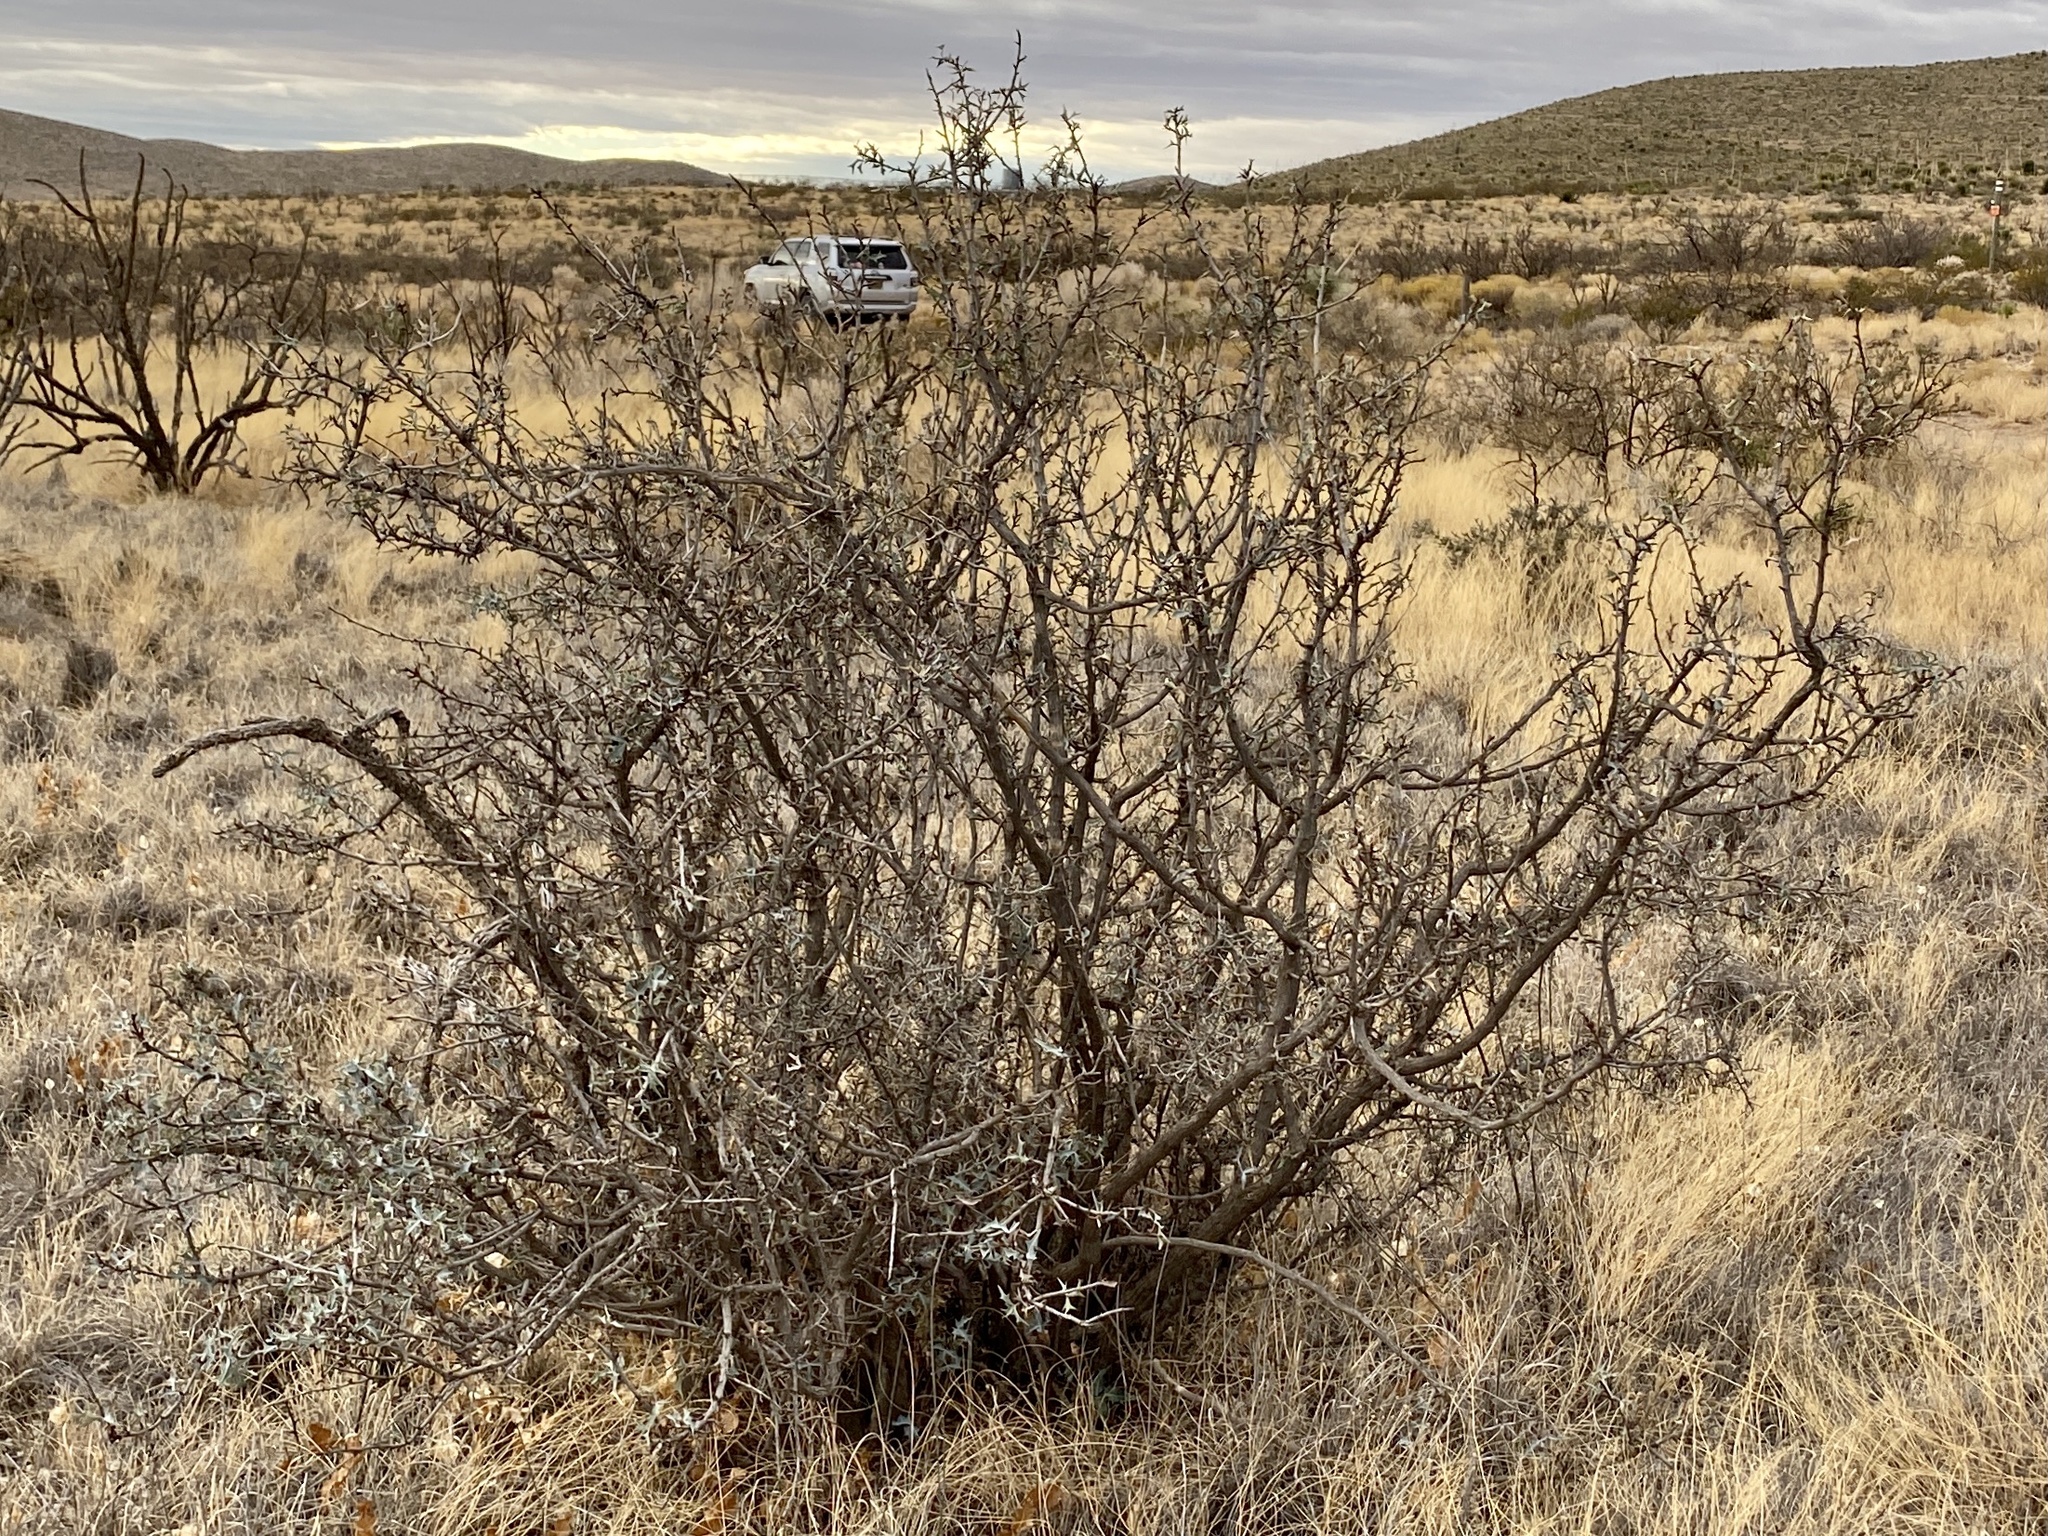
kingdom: Plantae
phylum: Tracheophyta
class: Magnoliopsida
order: Ranunculales
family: Berberidaceae
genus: Alloberberis
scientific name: Alloberberis trifoliolata
